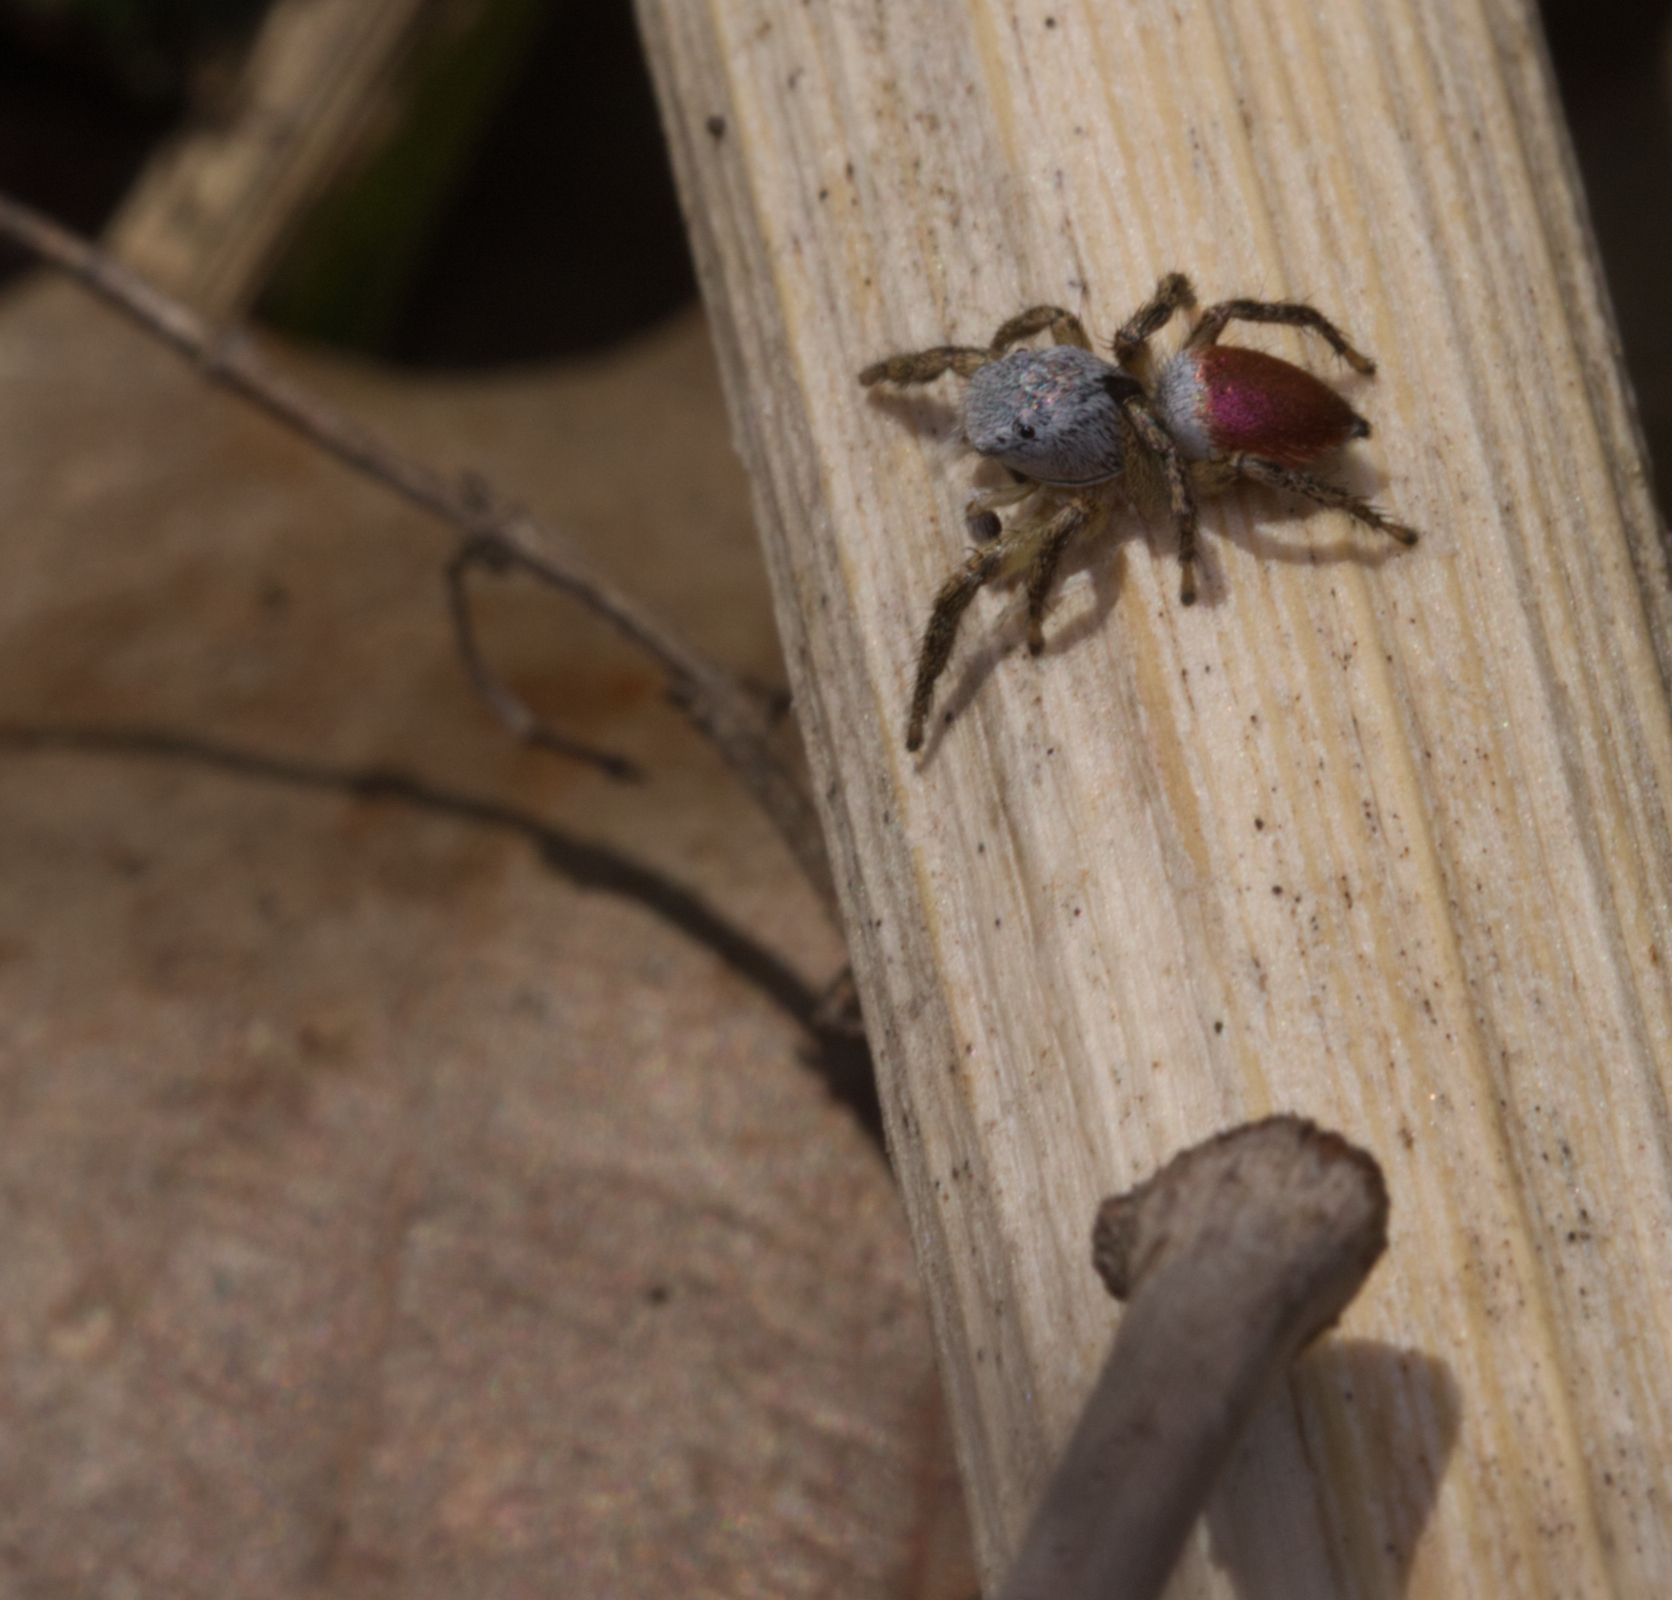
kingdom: Animalia
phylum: Arthropoda
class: Arachnida
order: Araneae
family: Salticidae
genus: Habronattus
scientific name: Habronattus decorus
